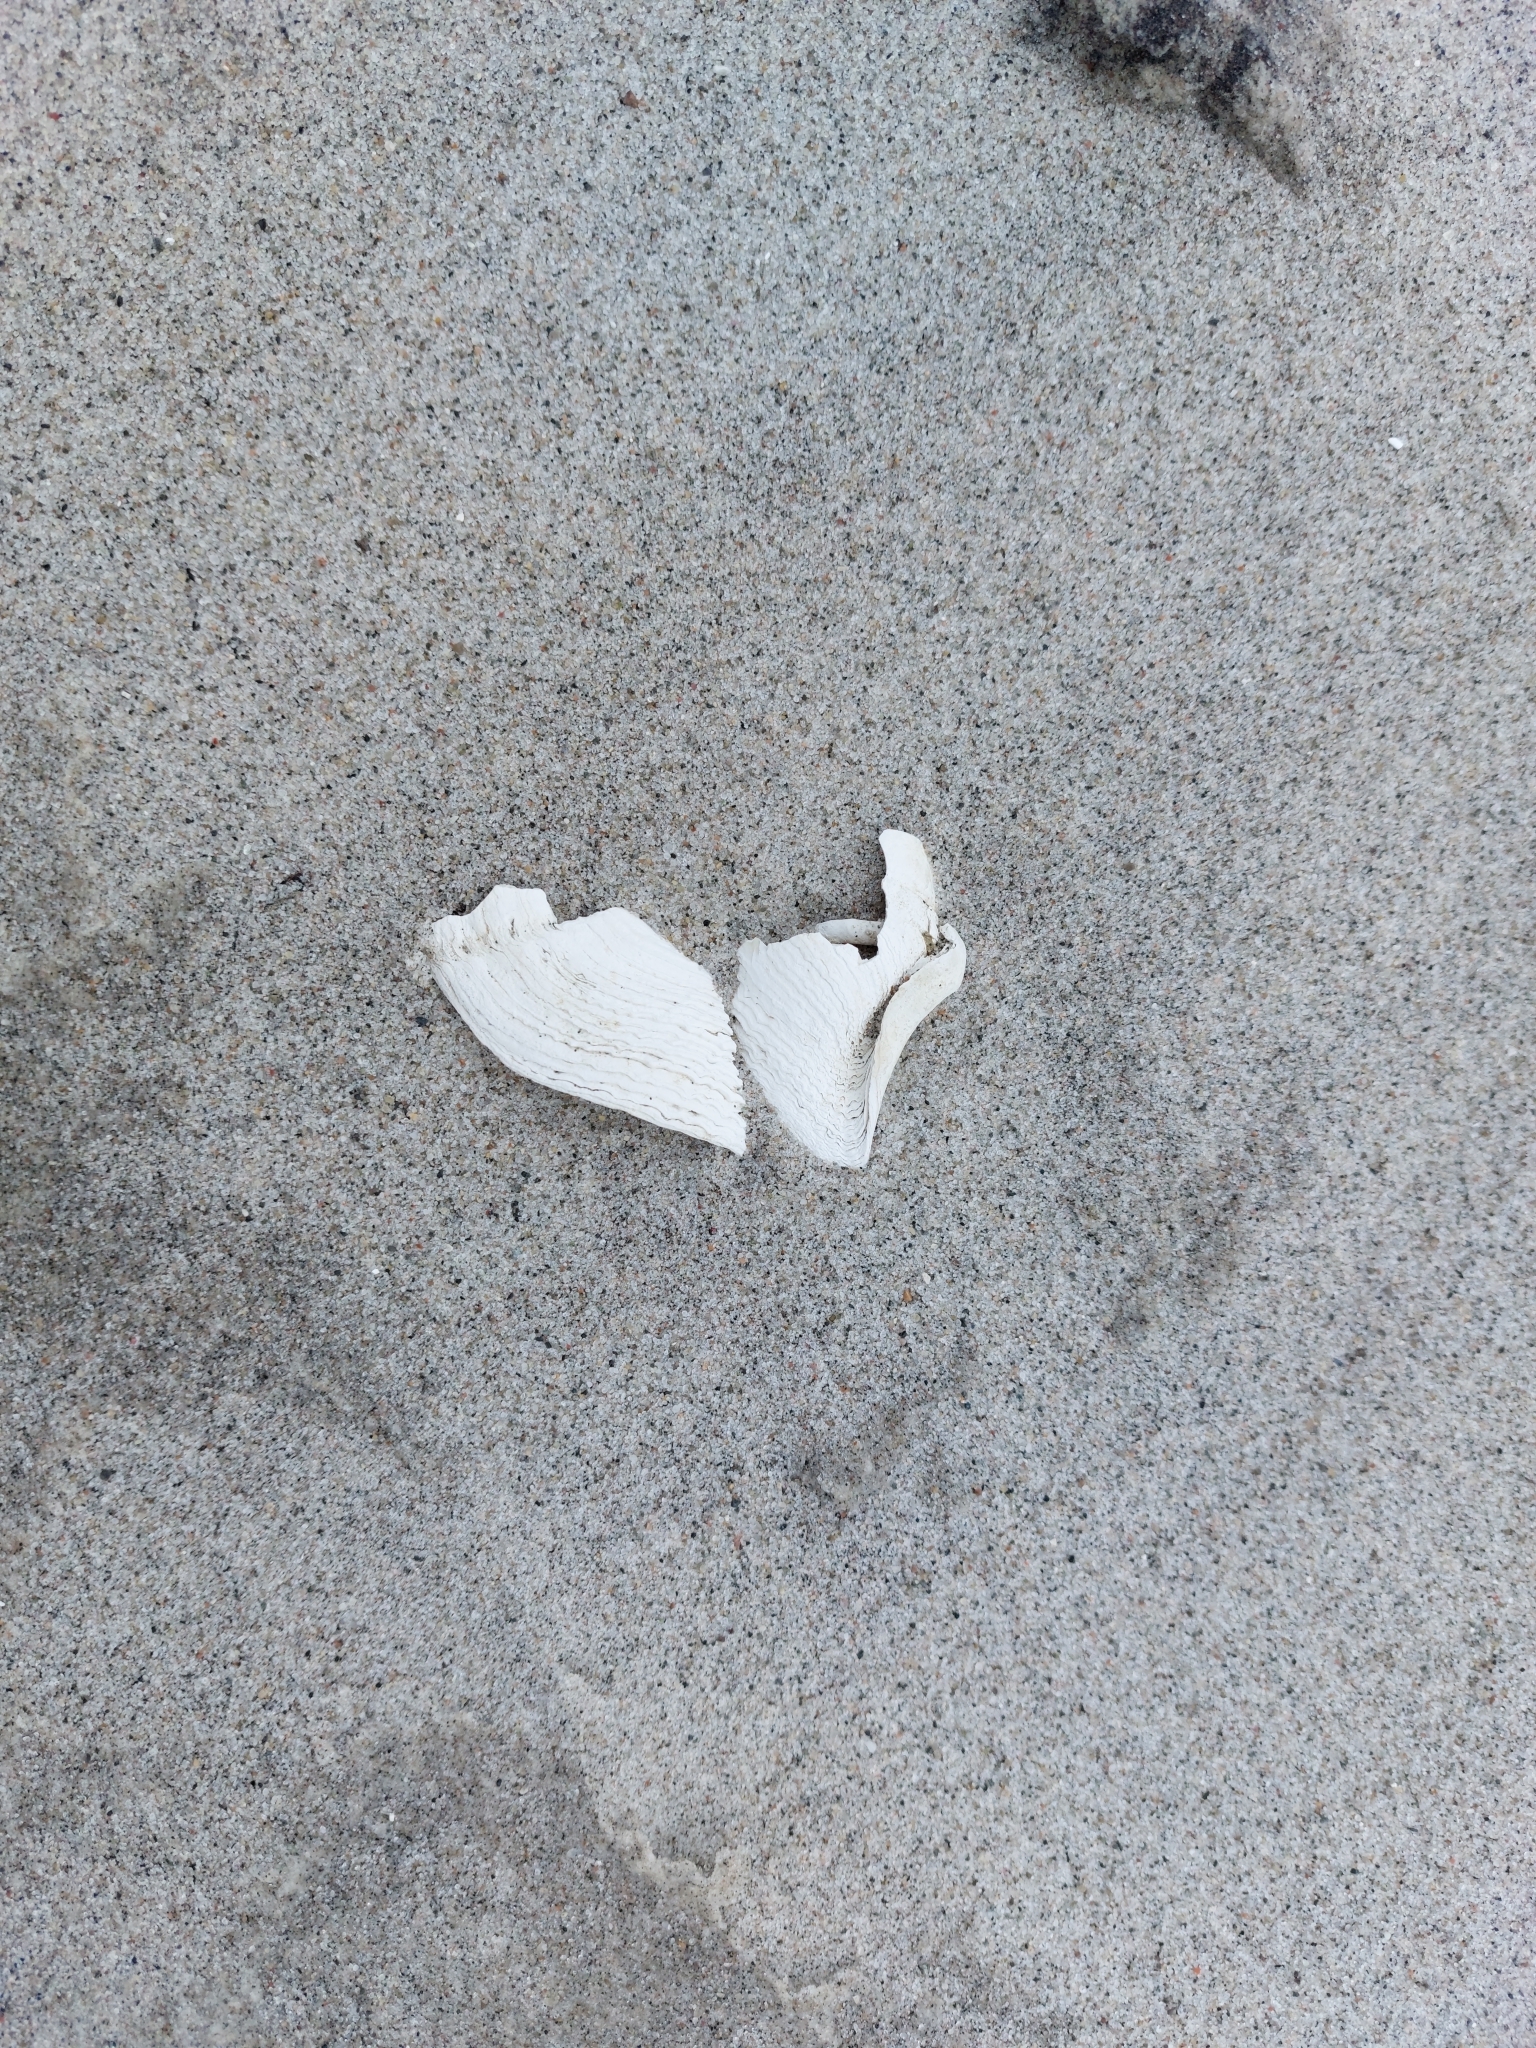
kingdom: Animalia
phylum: Mollusca
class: Bivalvia
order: Myida
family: Pholadidae
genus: Zirfaea
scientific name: Zirfaea crispata
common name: Oval piddock
